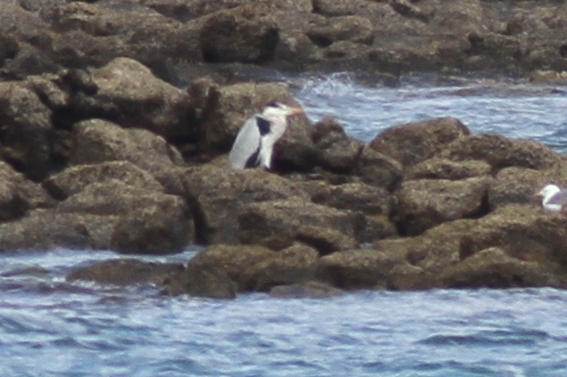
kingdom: Animalia
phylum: Chordata
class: Aves
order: Pelecaniformes
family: Ardeidae
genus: Ardea
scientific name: Ardea cinerea
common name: Grey heron
